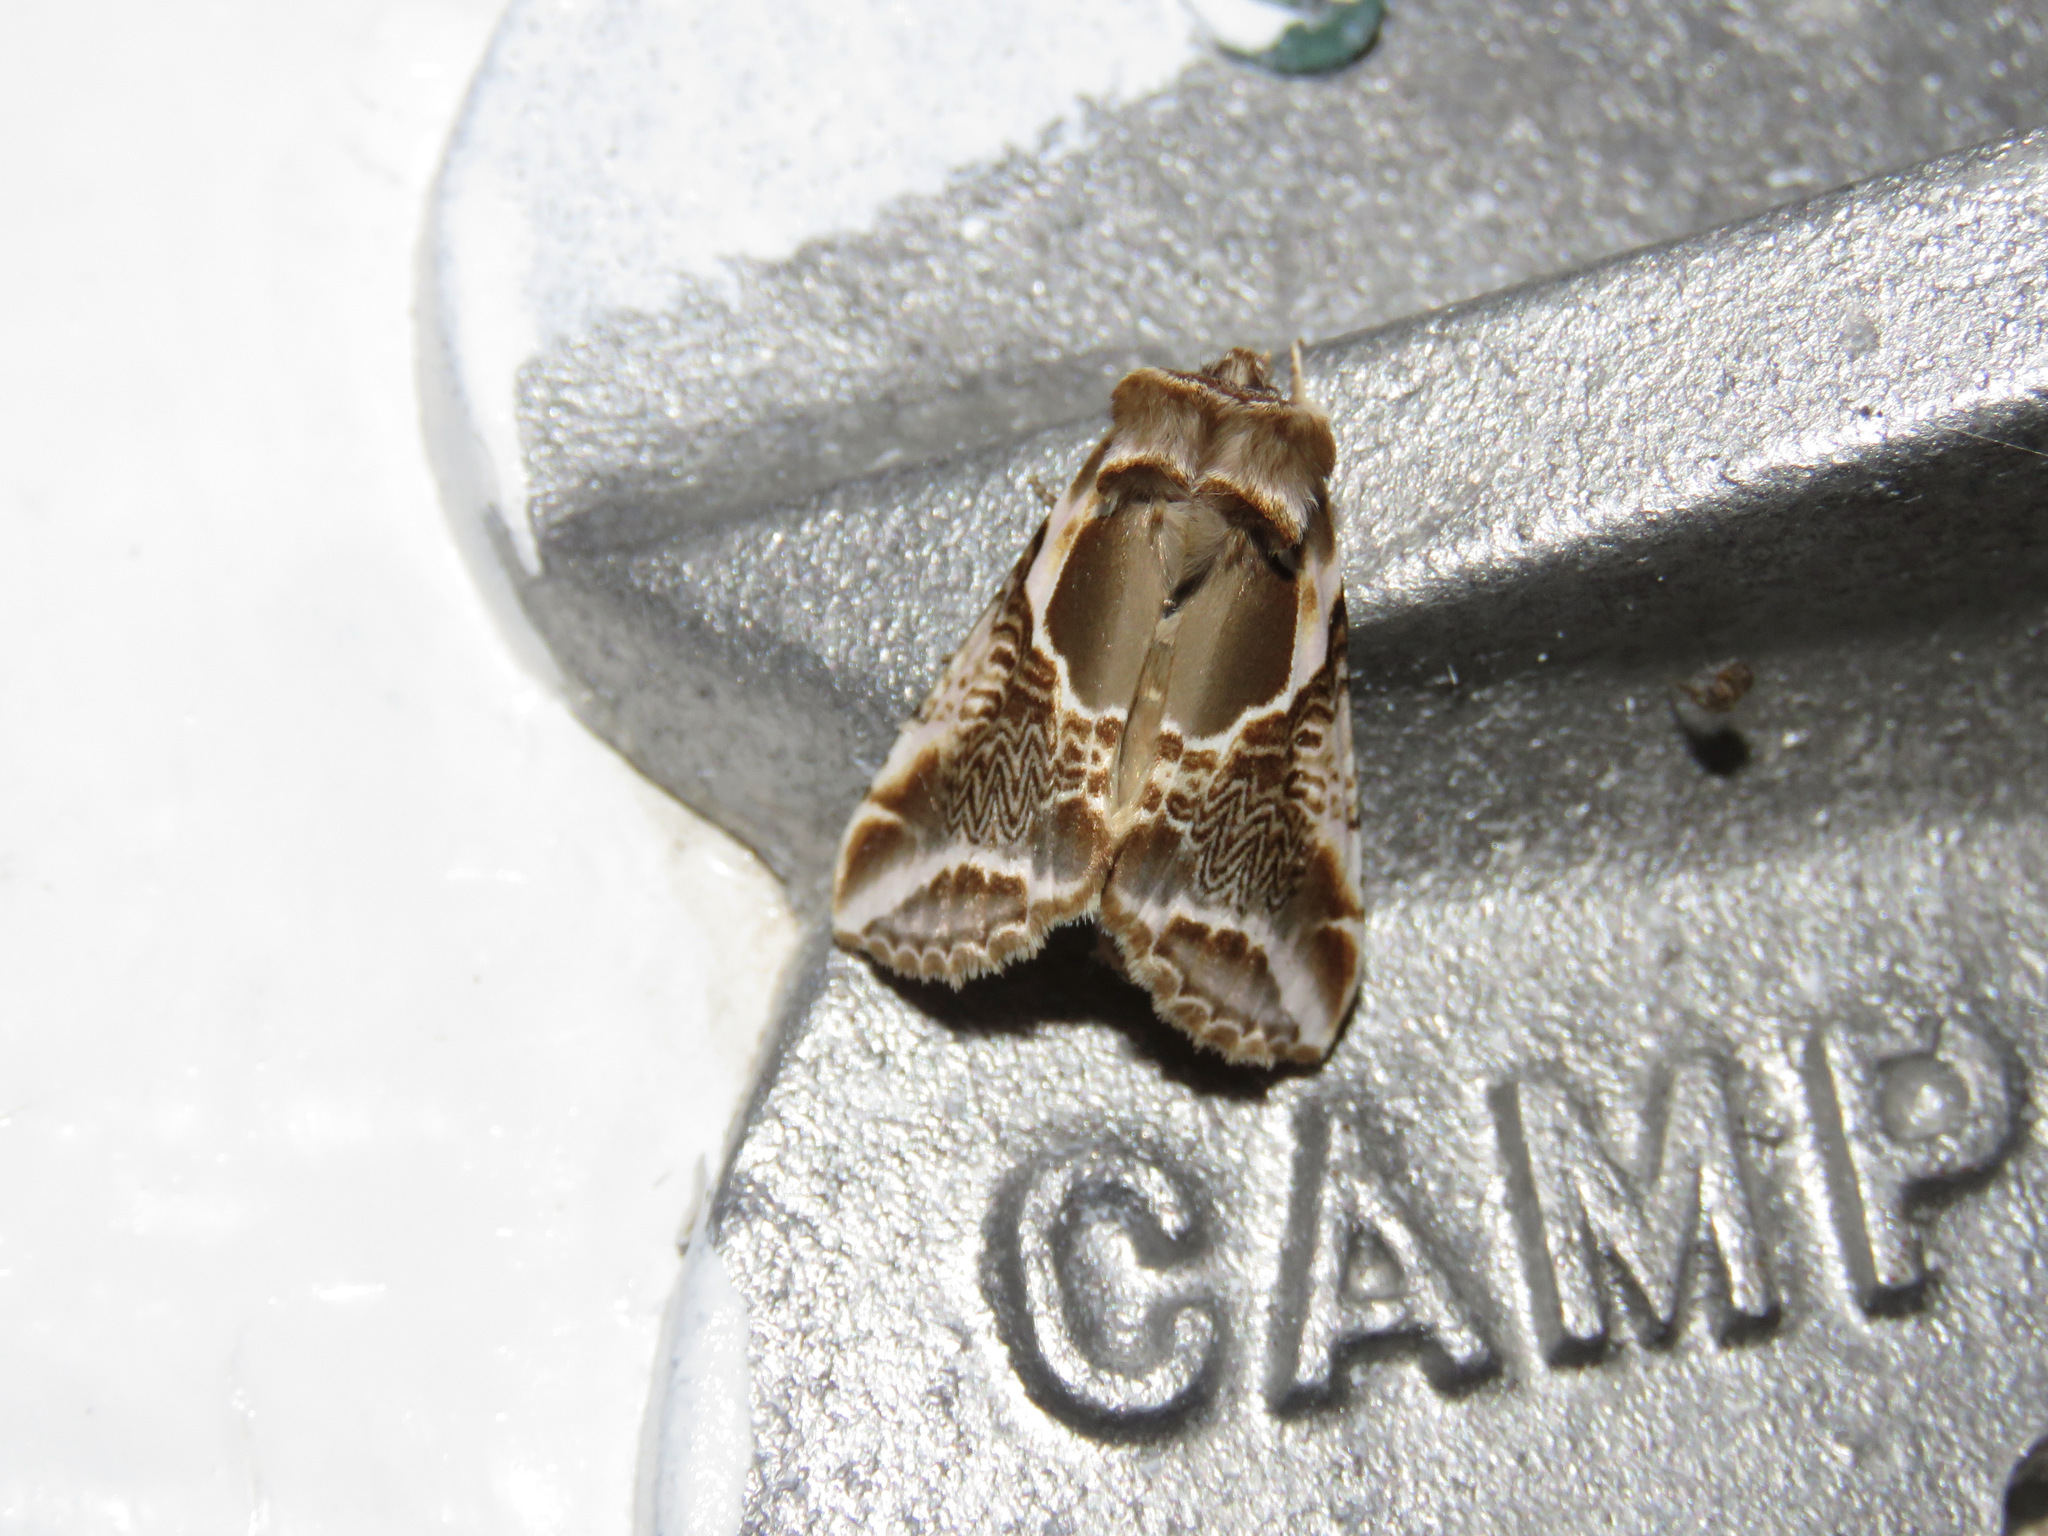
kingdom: Animalia
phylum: Arthropoda
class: Insecta
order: Lepidoptera
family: Drepanidae
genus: Habrosyne
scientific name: Habrosyne scripta
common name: Lettered habrosyne moth
